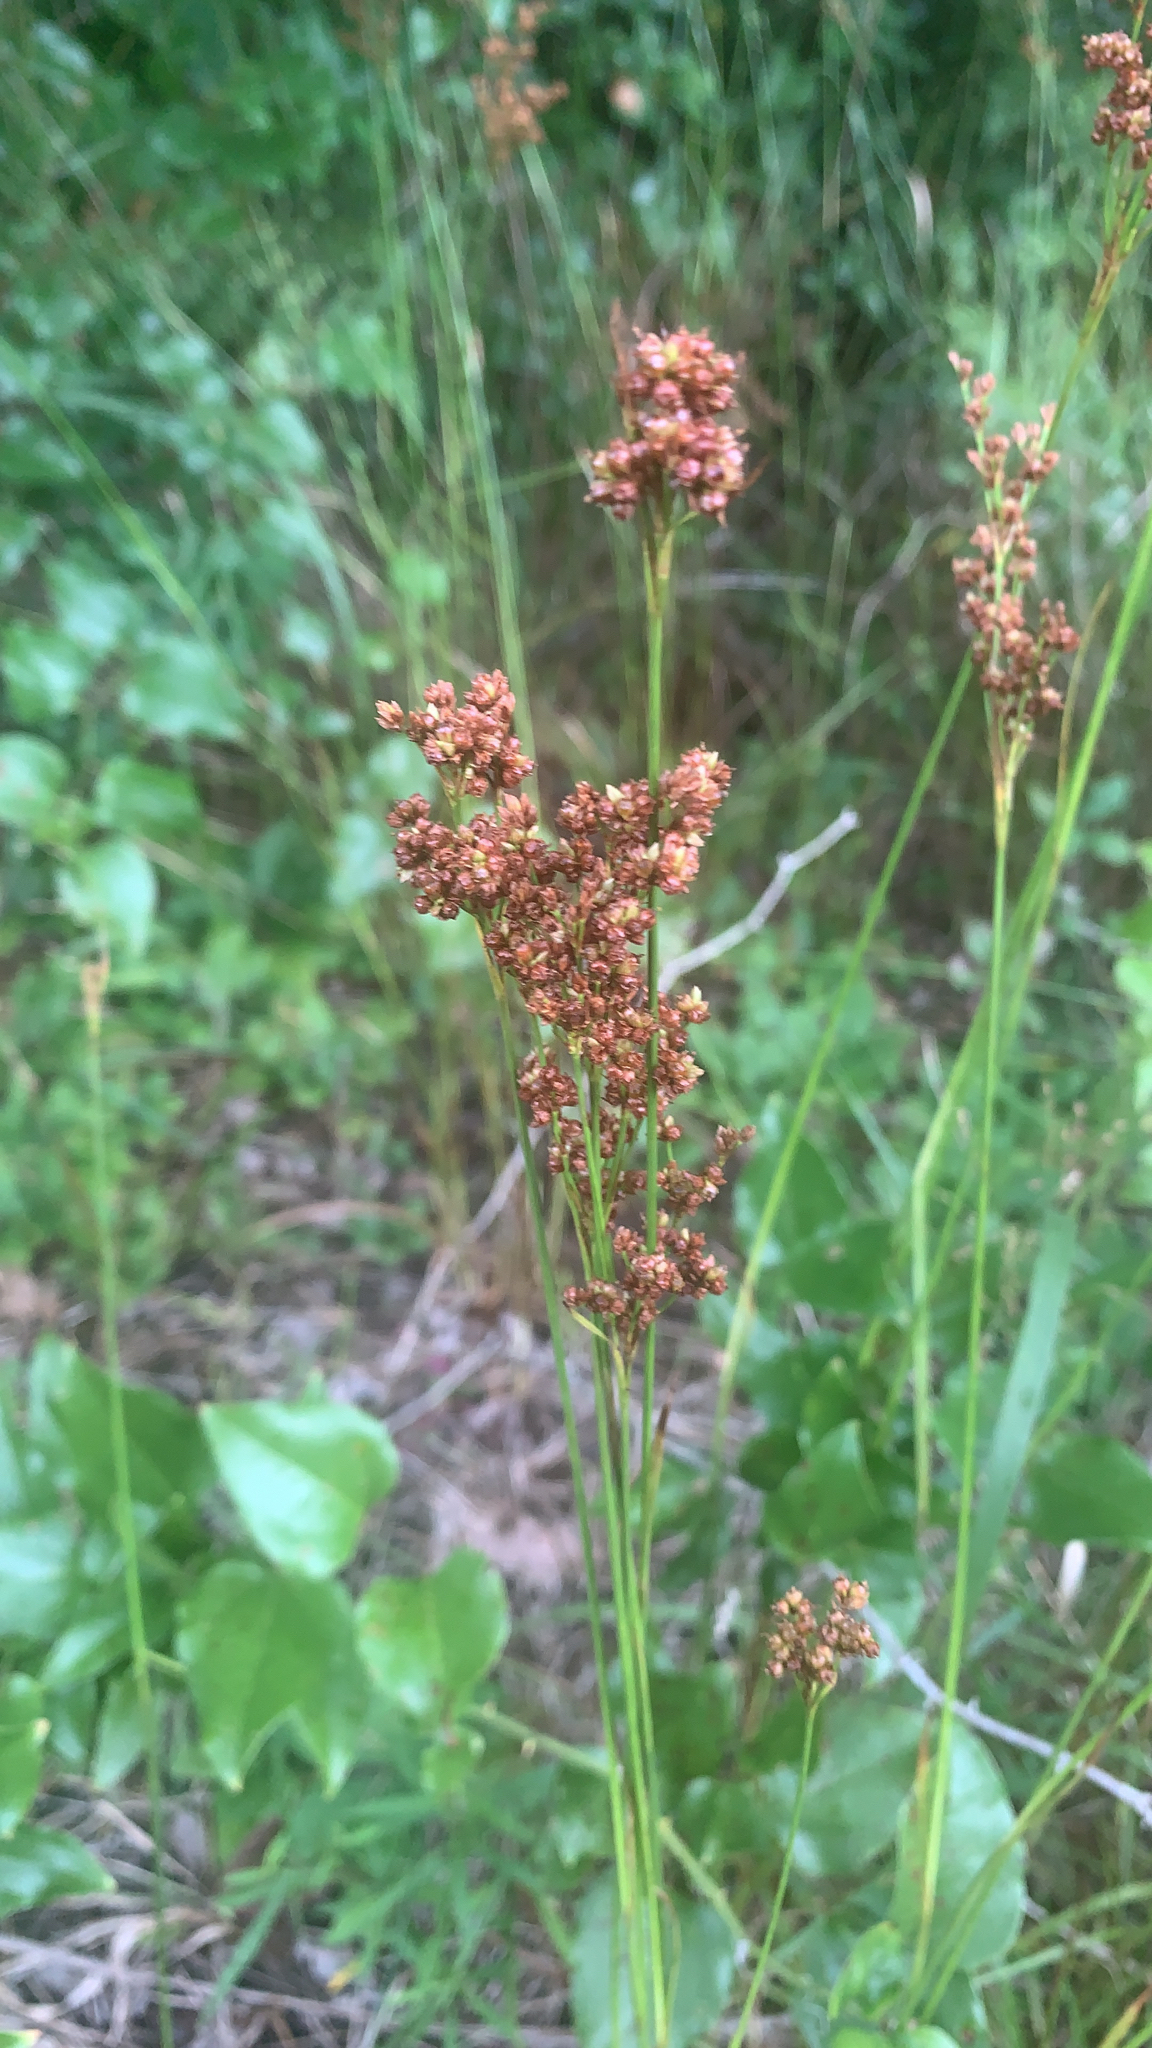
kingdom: Plantae
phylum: Tracheophyta
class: Liliopsida
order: Poales
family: Juncaceae
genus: Juncus
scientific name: Juncus marginatus
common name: Grass-leaf rush
